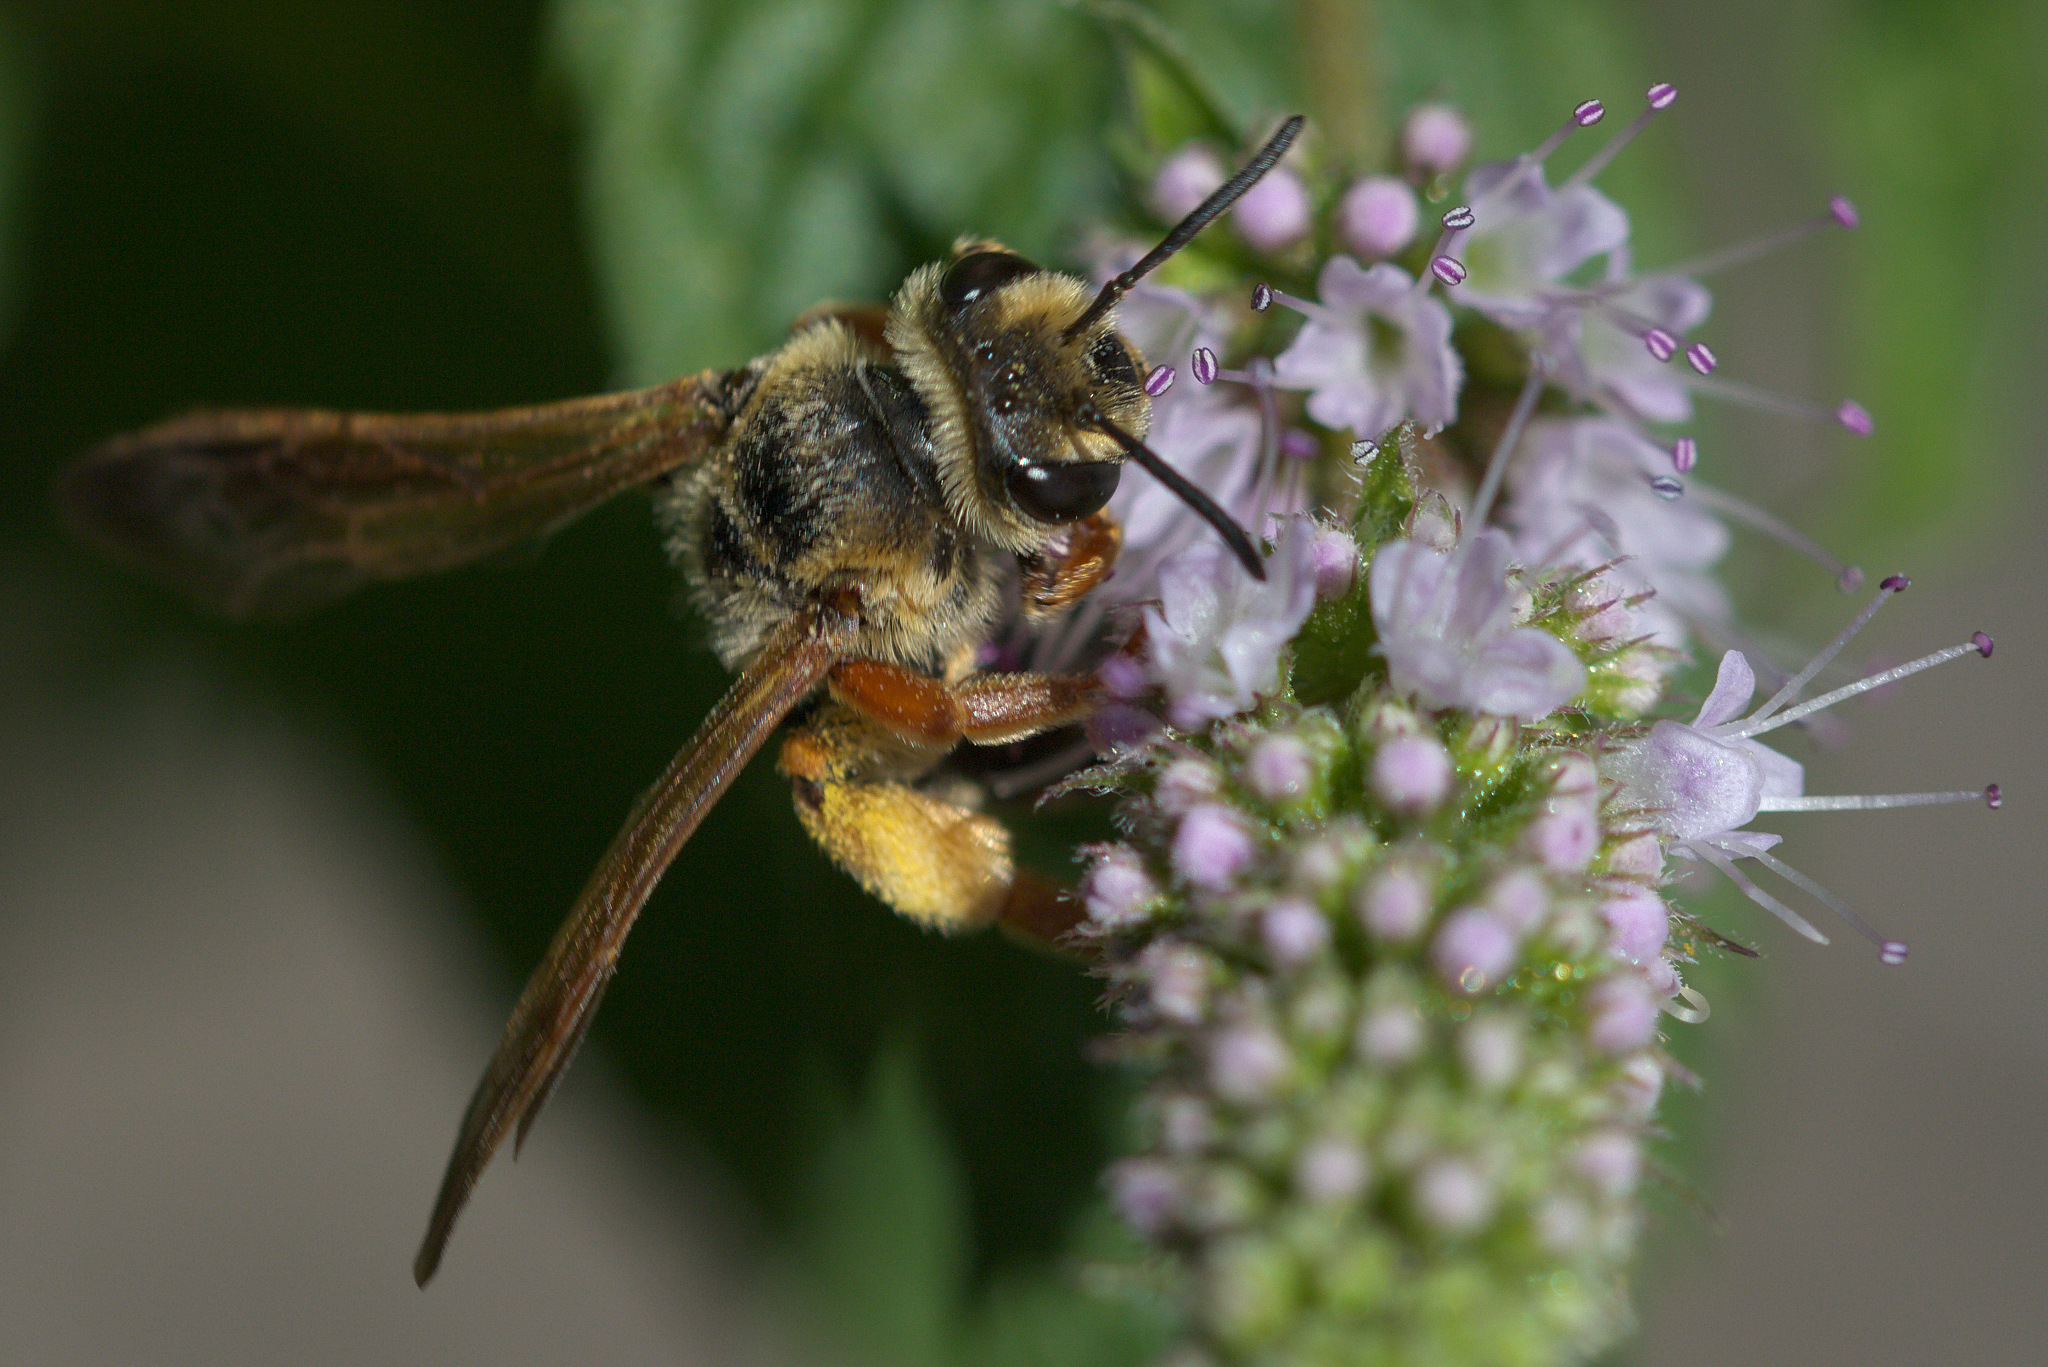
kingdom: Animalia
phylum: Arthropoda
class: Insecta
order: Hymenoptera
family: Andrenidae
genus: Andrena
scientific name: Andrena prunorum
